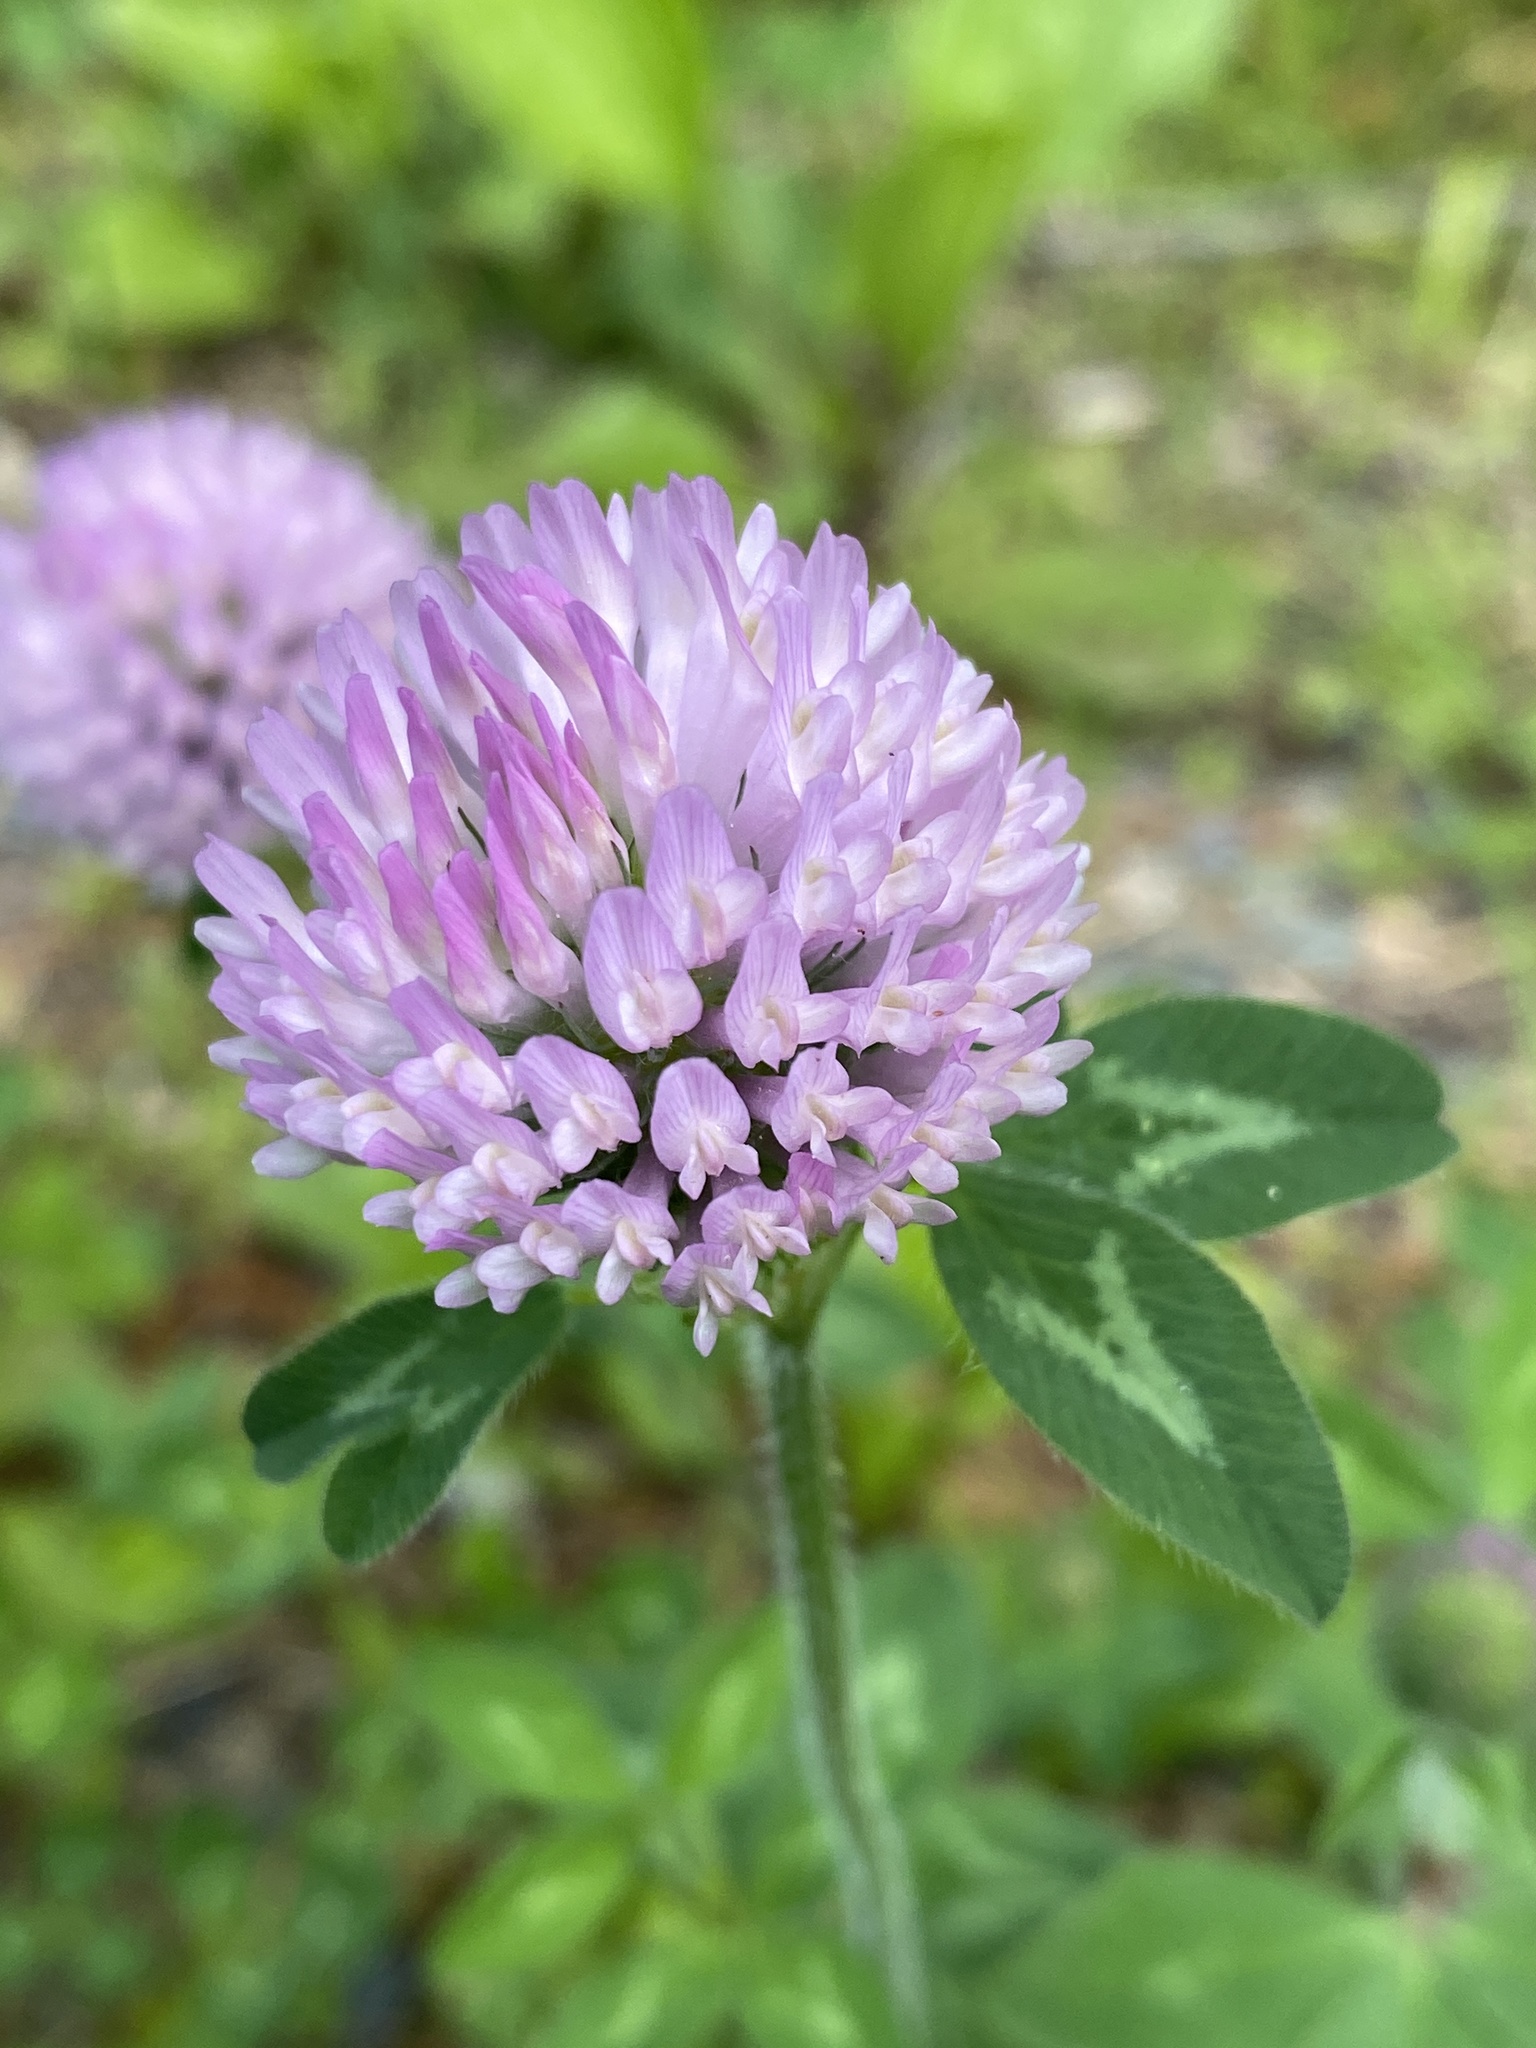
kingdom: Plantae
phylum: Tracheophyta
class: Magnoliopsida
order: Fabales
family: Fabaceae
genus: Trifolium
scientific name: Trifolium pratense
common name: Red clover
